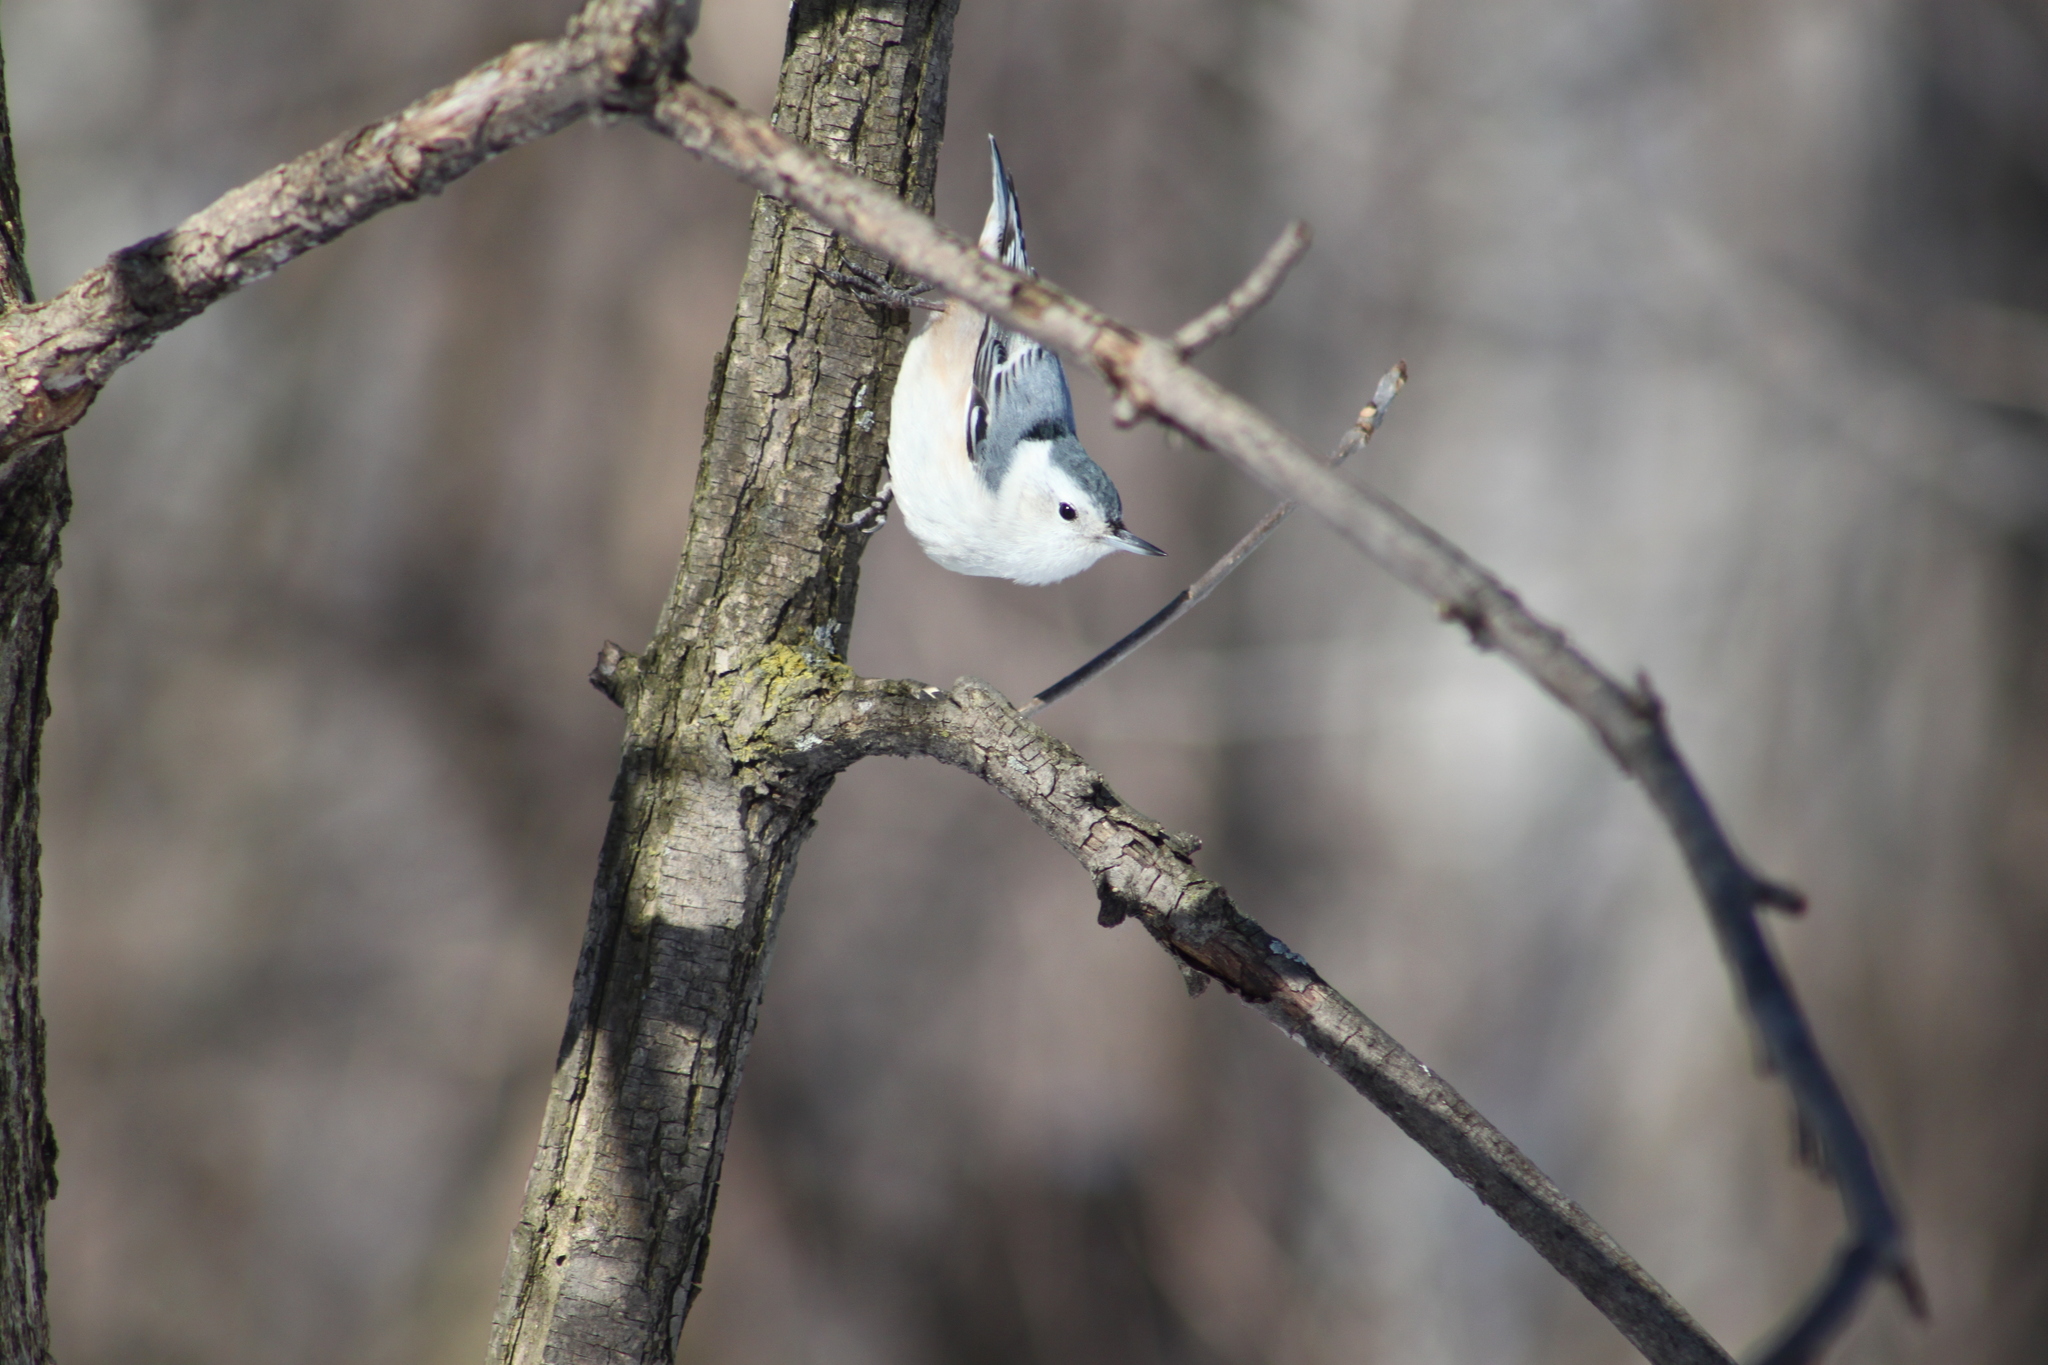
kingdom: Animalia
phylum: Chordata
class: Aves
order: Passeriformes
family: Sittidae
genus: Sitta
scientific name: Sitta carolinensis
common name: White-breasted nuthatch
